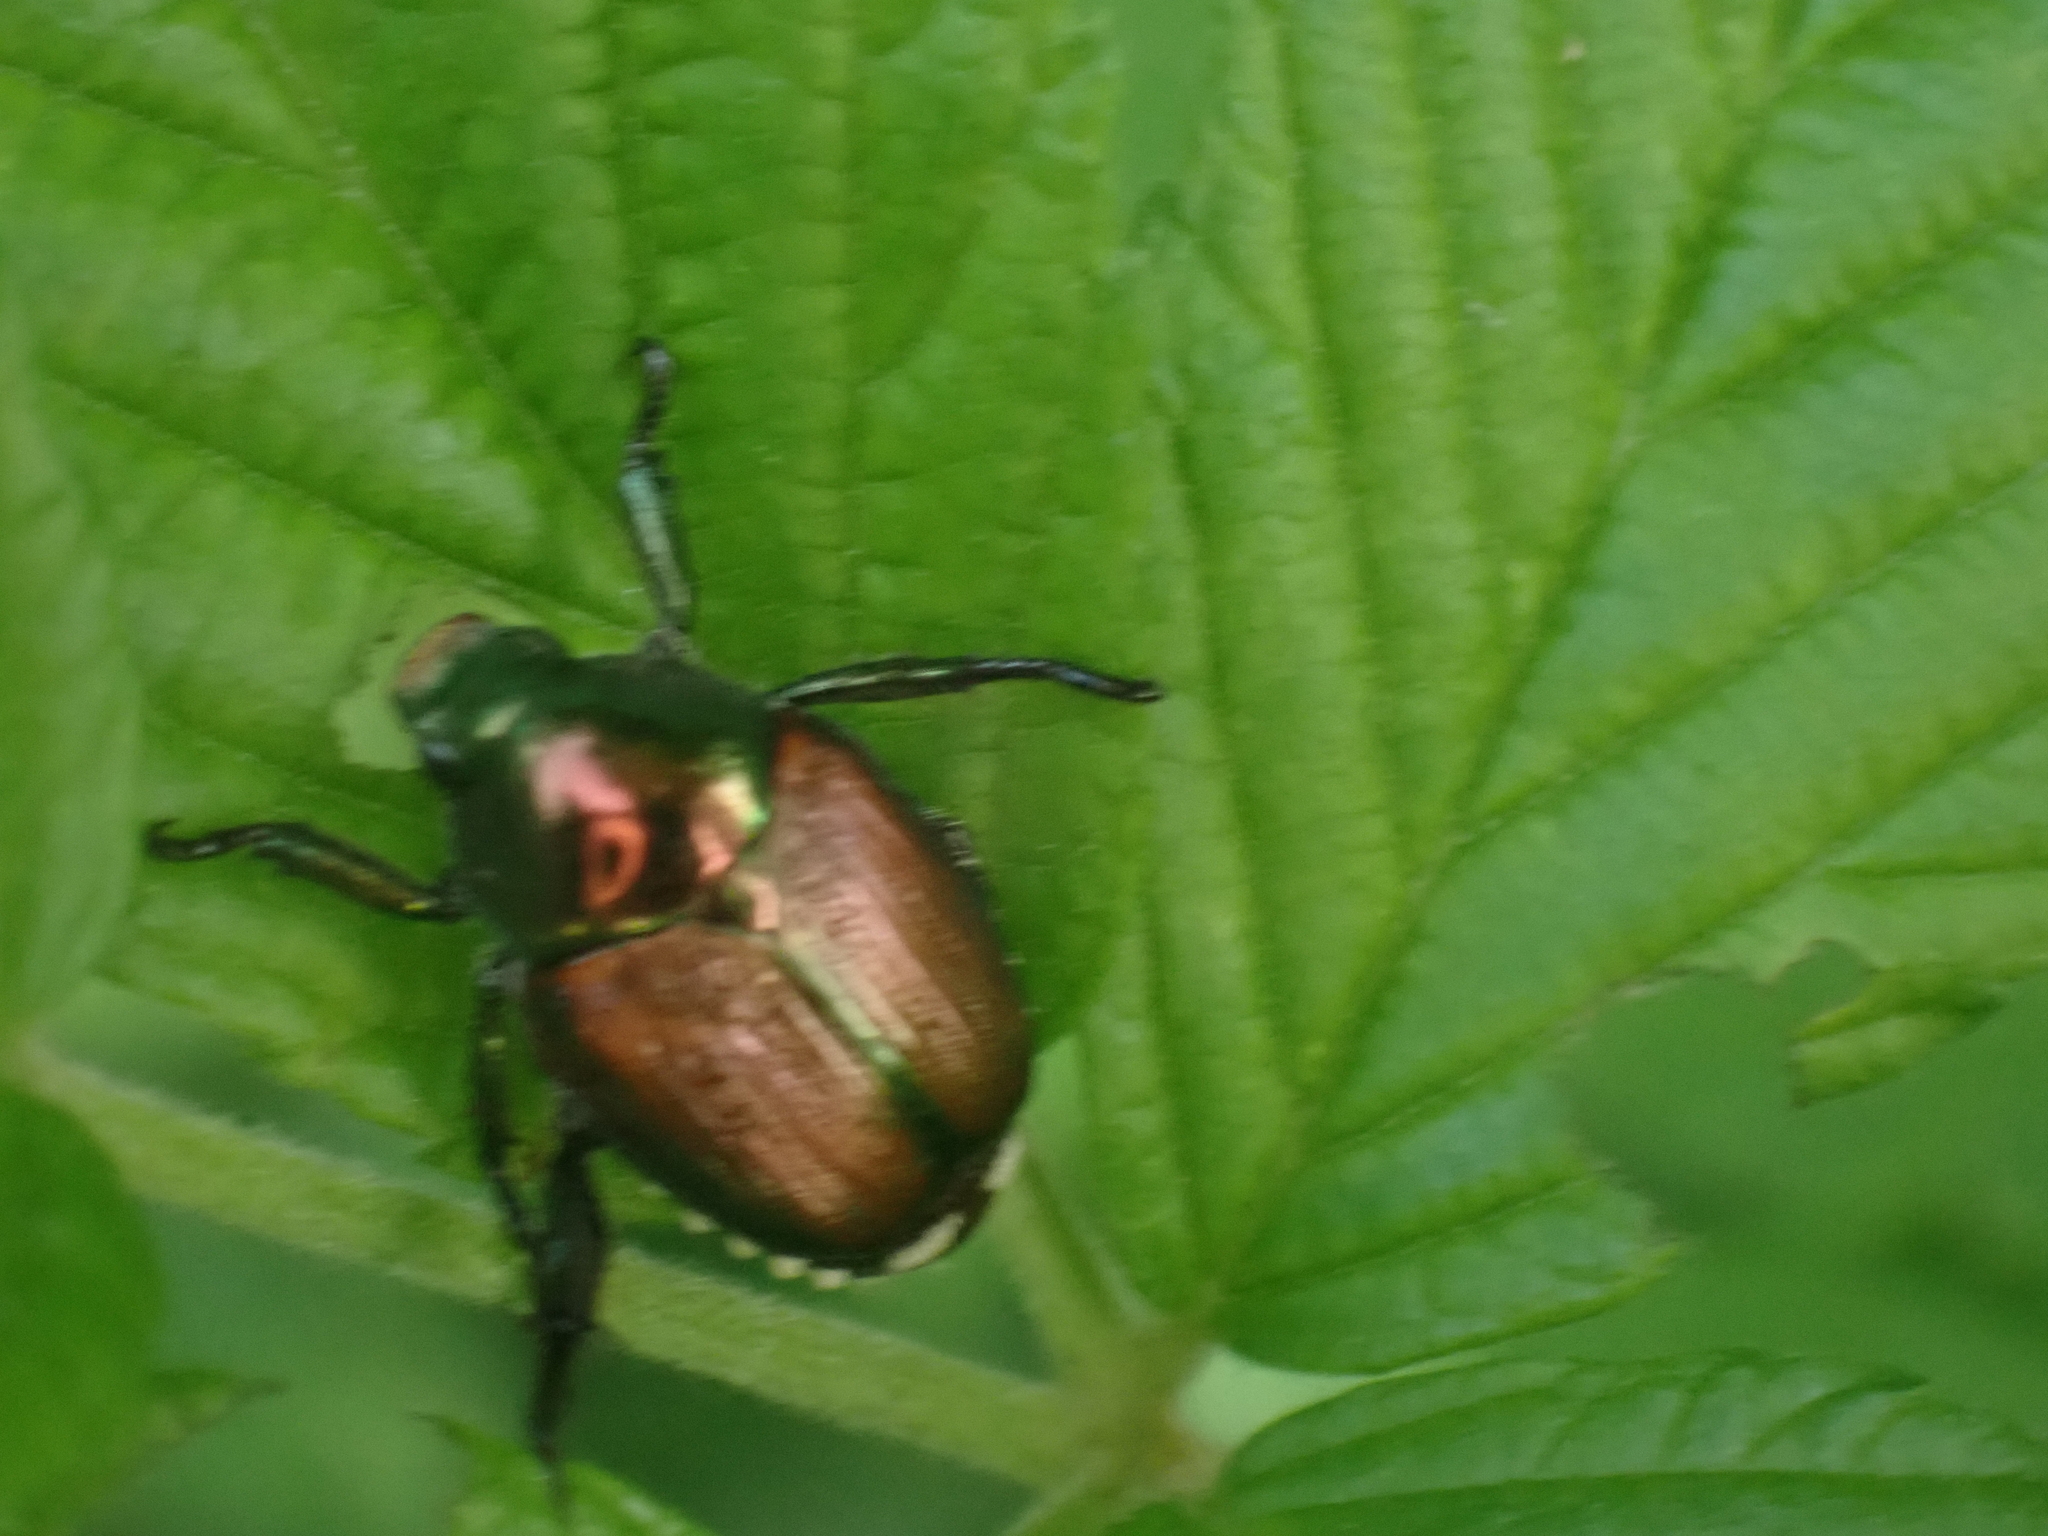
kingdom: Animalia
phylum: Arthropoda
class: Insecta
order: Coleoptera
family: Scarabaeidae
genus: Popillia
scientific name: Popillia japonica
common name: Japanese beetle
